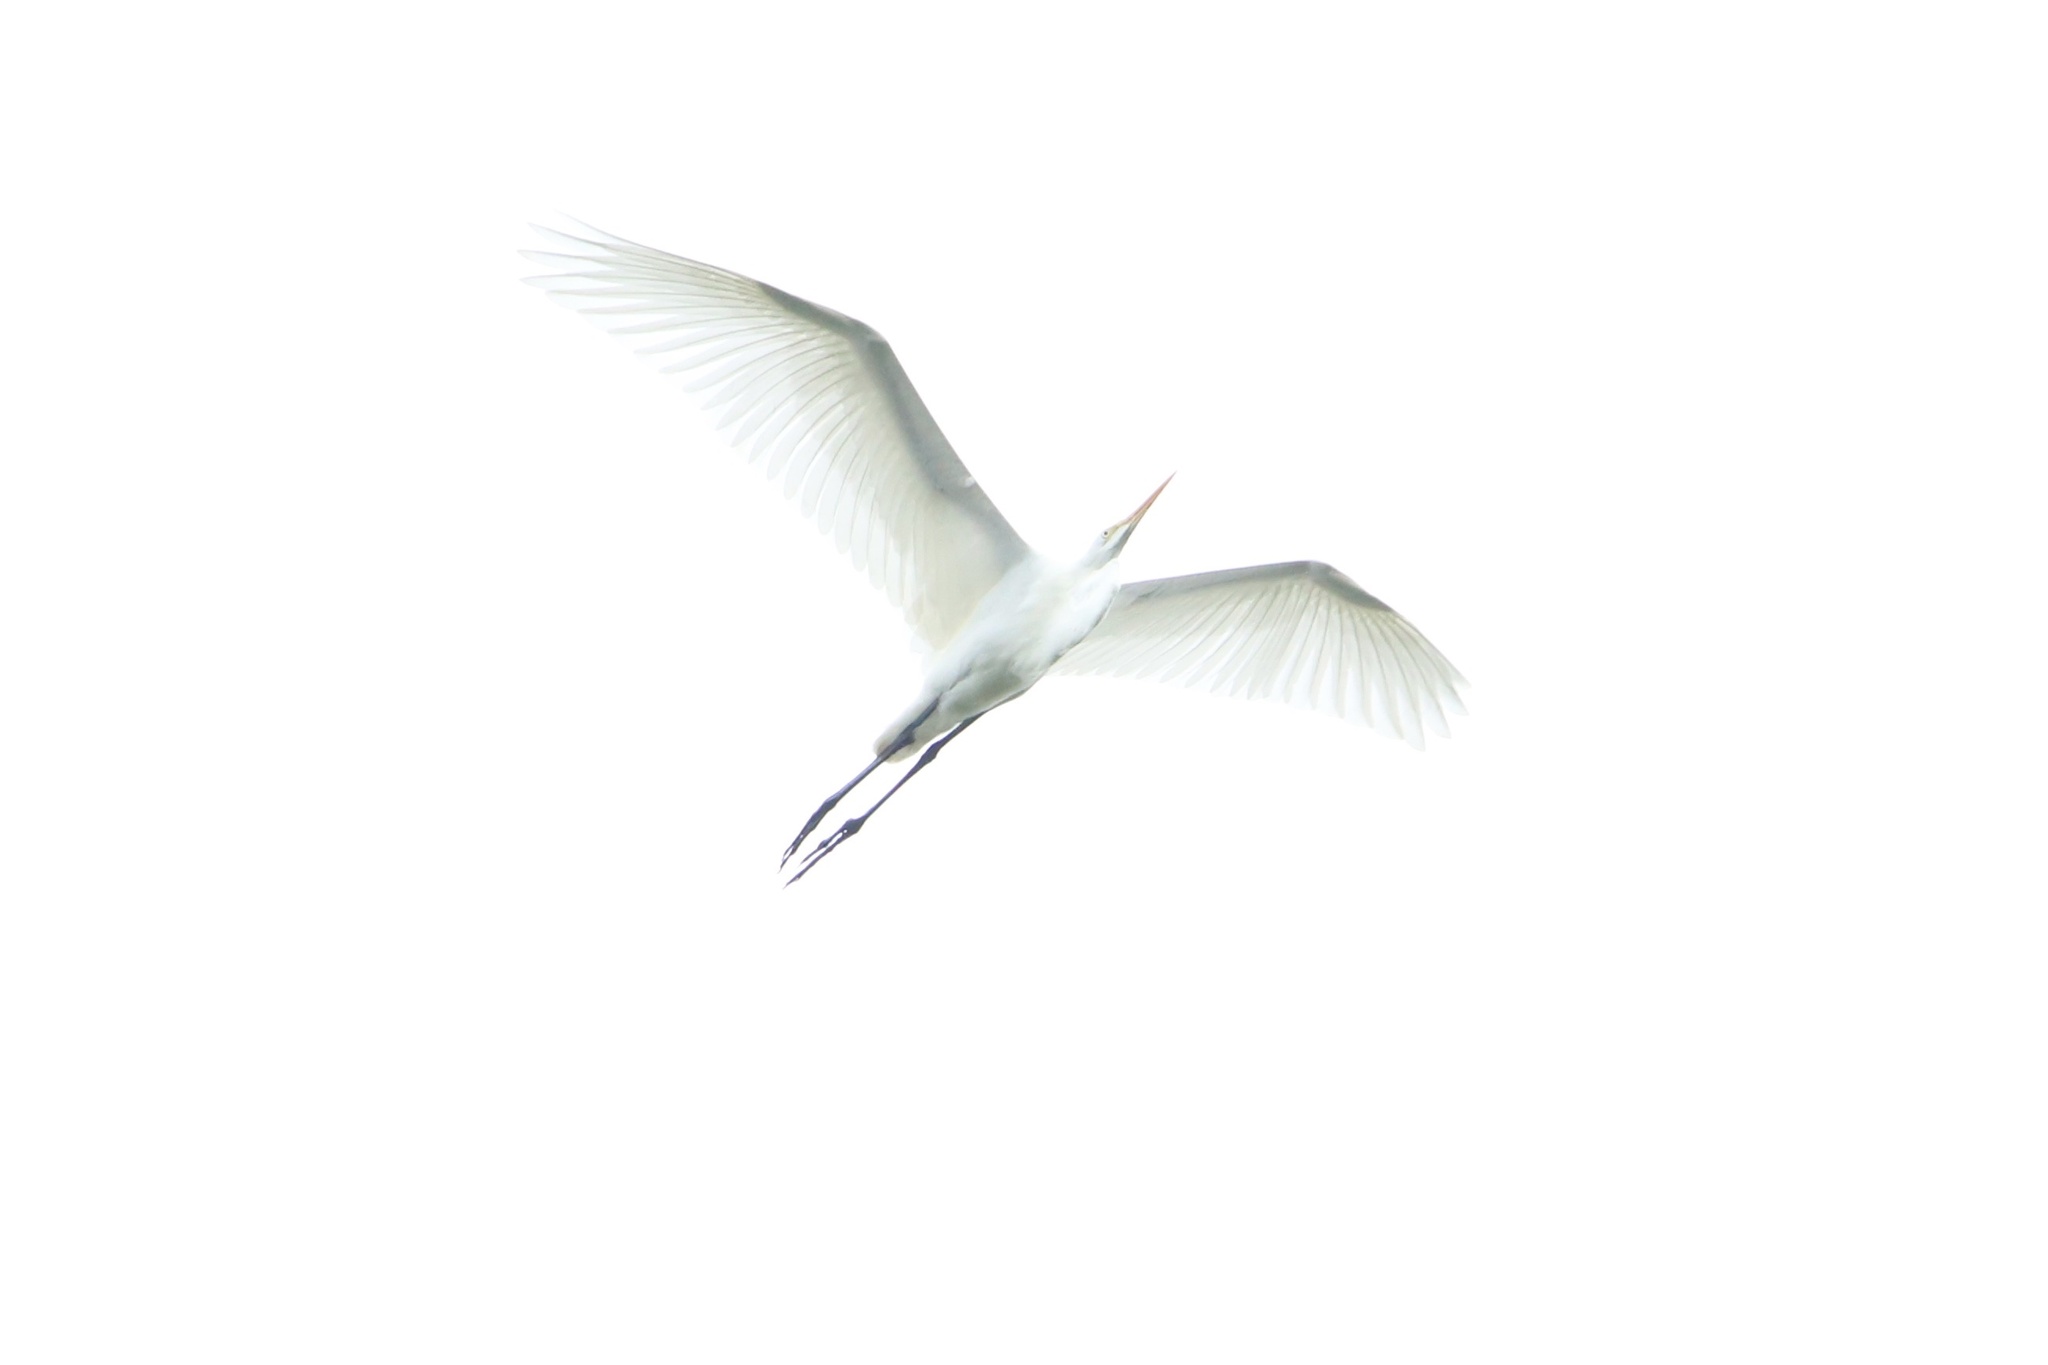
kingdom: Animalia
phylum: Chordata
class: Aves
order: Pelecaniformes
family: Ardeidae
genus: Ardea
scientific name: Ardea alba
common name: Great egret
